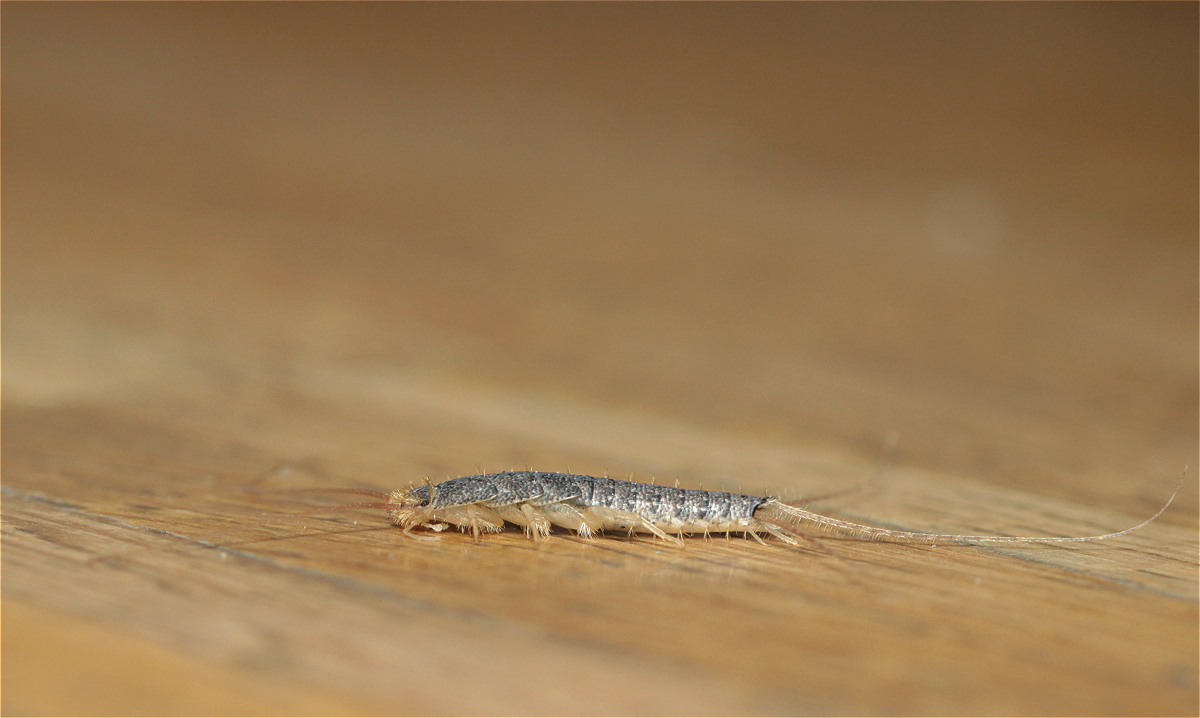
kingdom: Animalia
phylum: Arthropoda
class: Insecta
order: Zygentoma
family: Lepismatidae
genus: Ctenolepisma
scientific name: Ctenolepisma longicaudatum
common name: Silverfish
